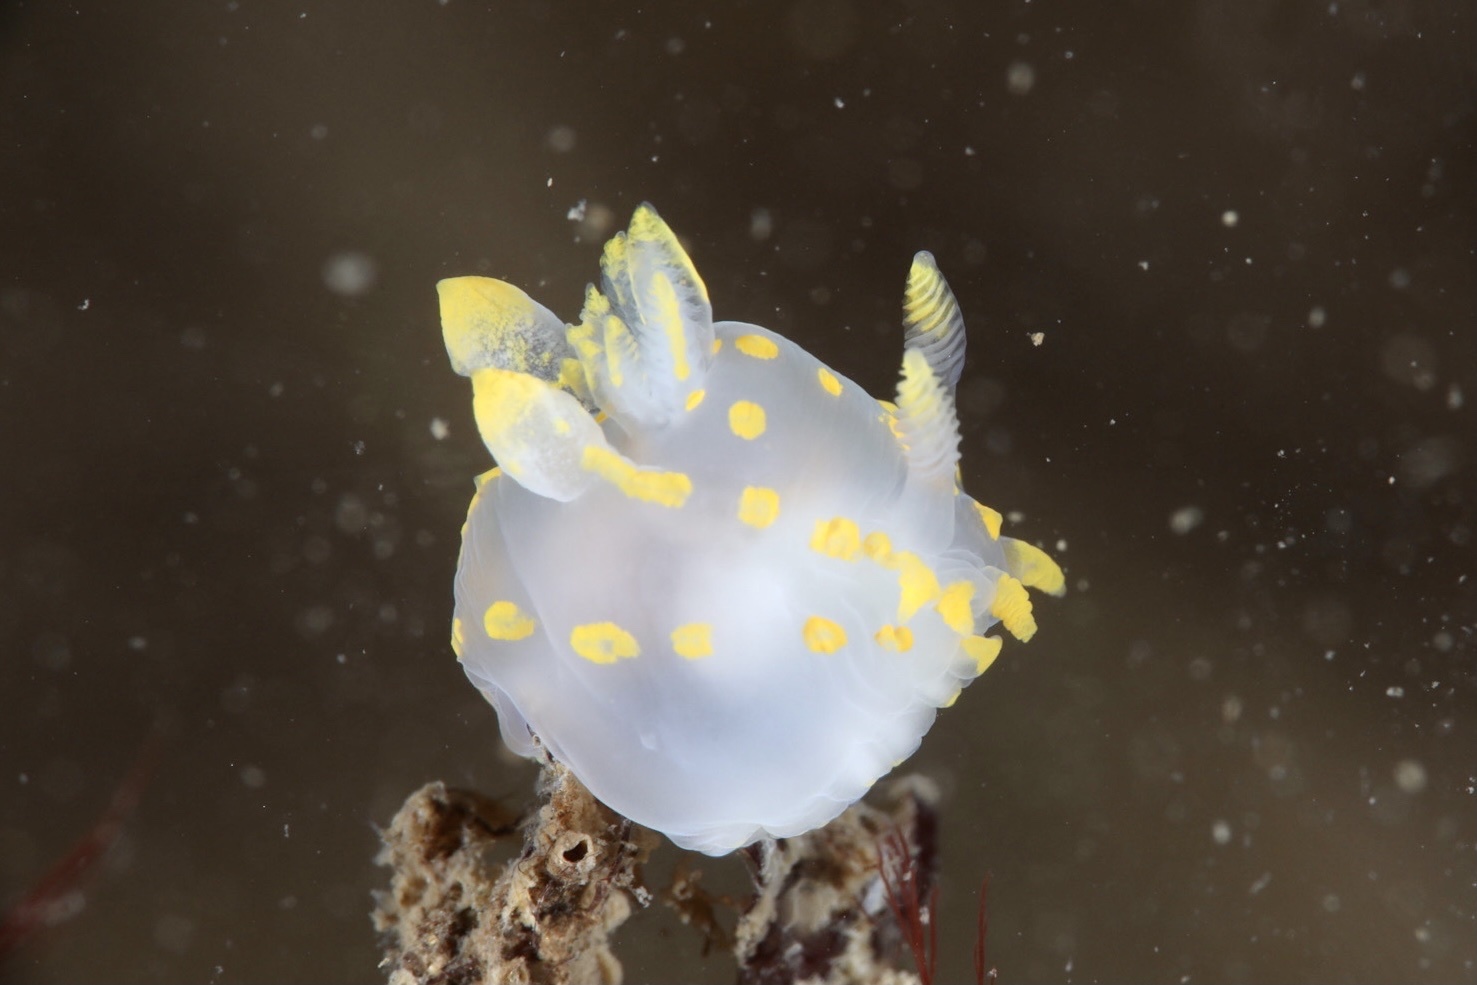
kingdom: Animalia
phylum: Mollusca
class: Gastropoda
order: Nudibranchia
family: Polyceridae
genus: Polycera
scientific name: Polycera quadrilineata
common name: Four-striped polycera
